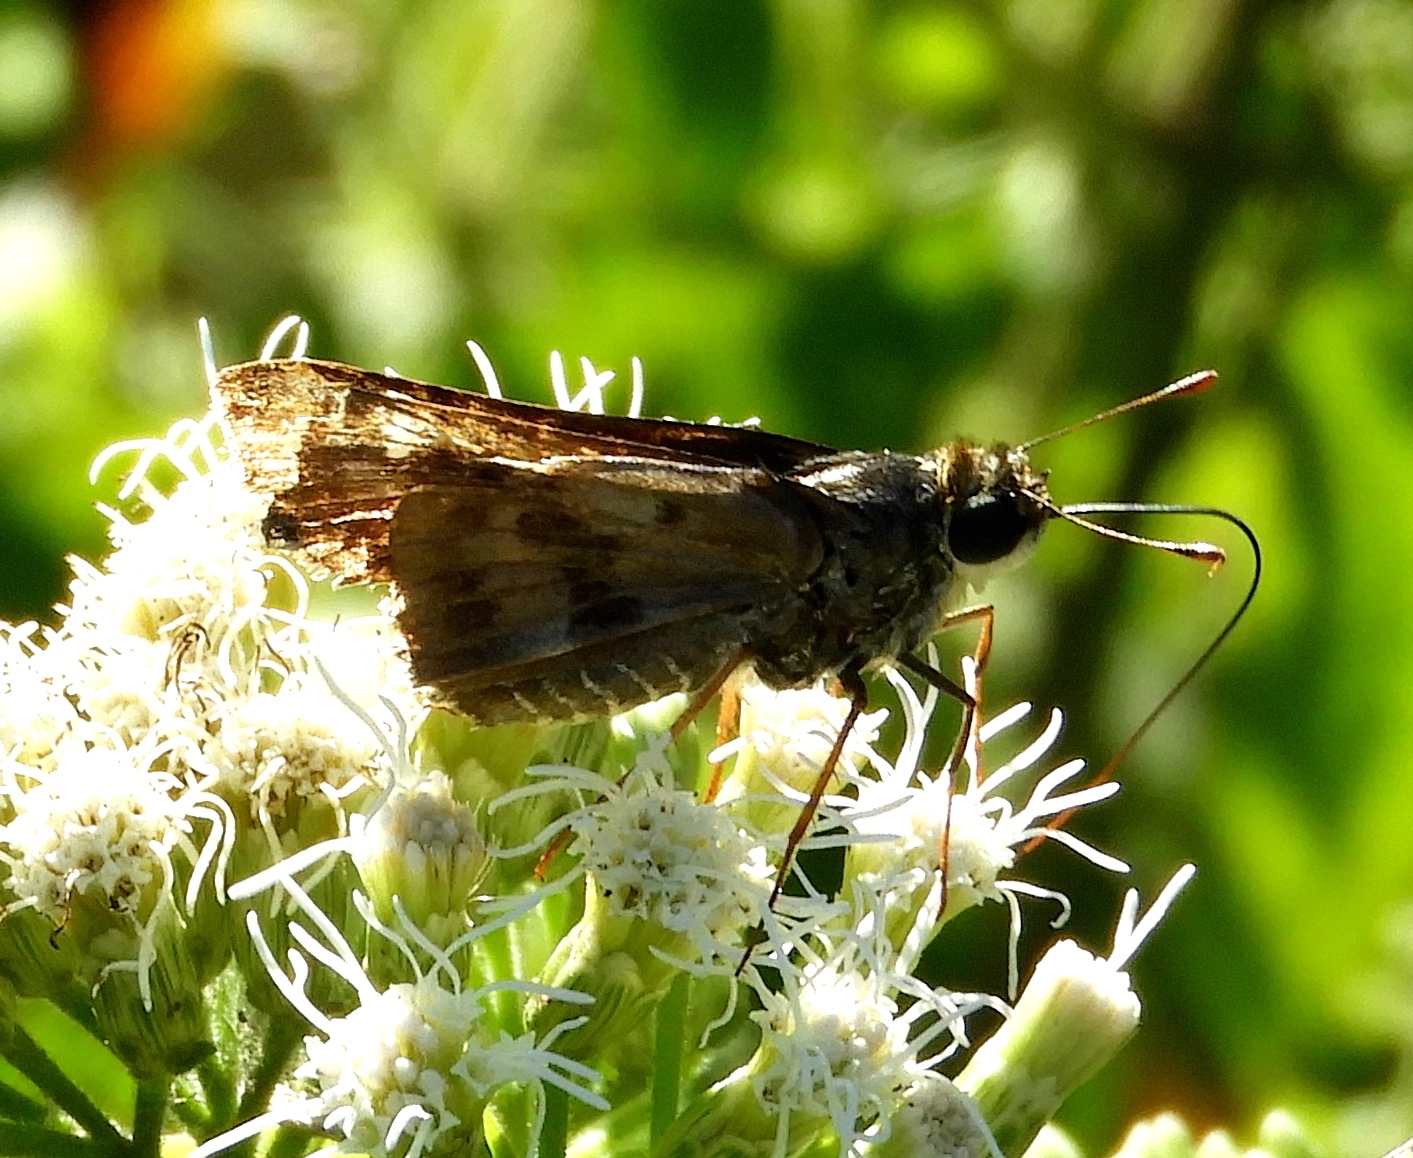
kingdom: Animalia
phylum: Arthropoda
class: Insecta
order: Lepidoptera
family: Hesperiidae
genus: Polygonus
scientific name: Polygonus
